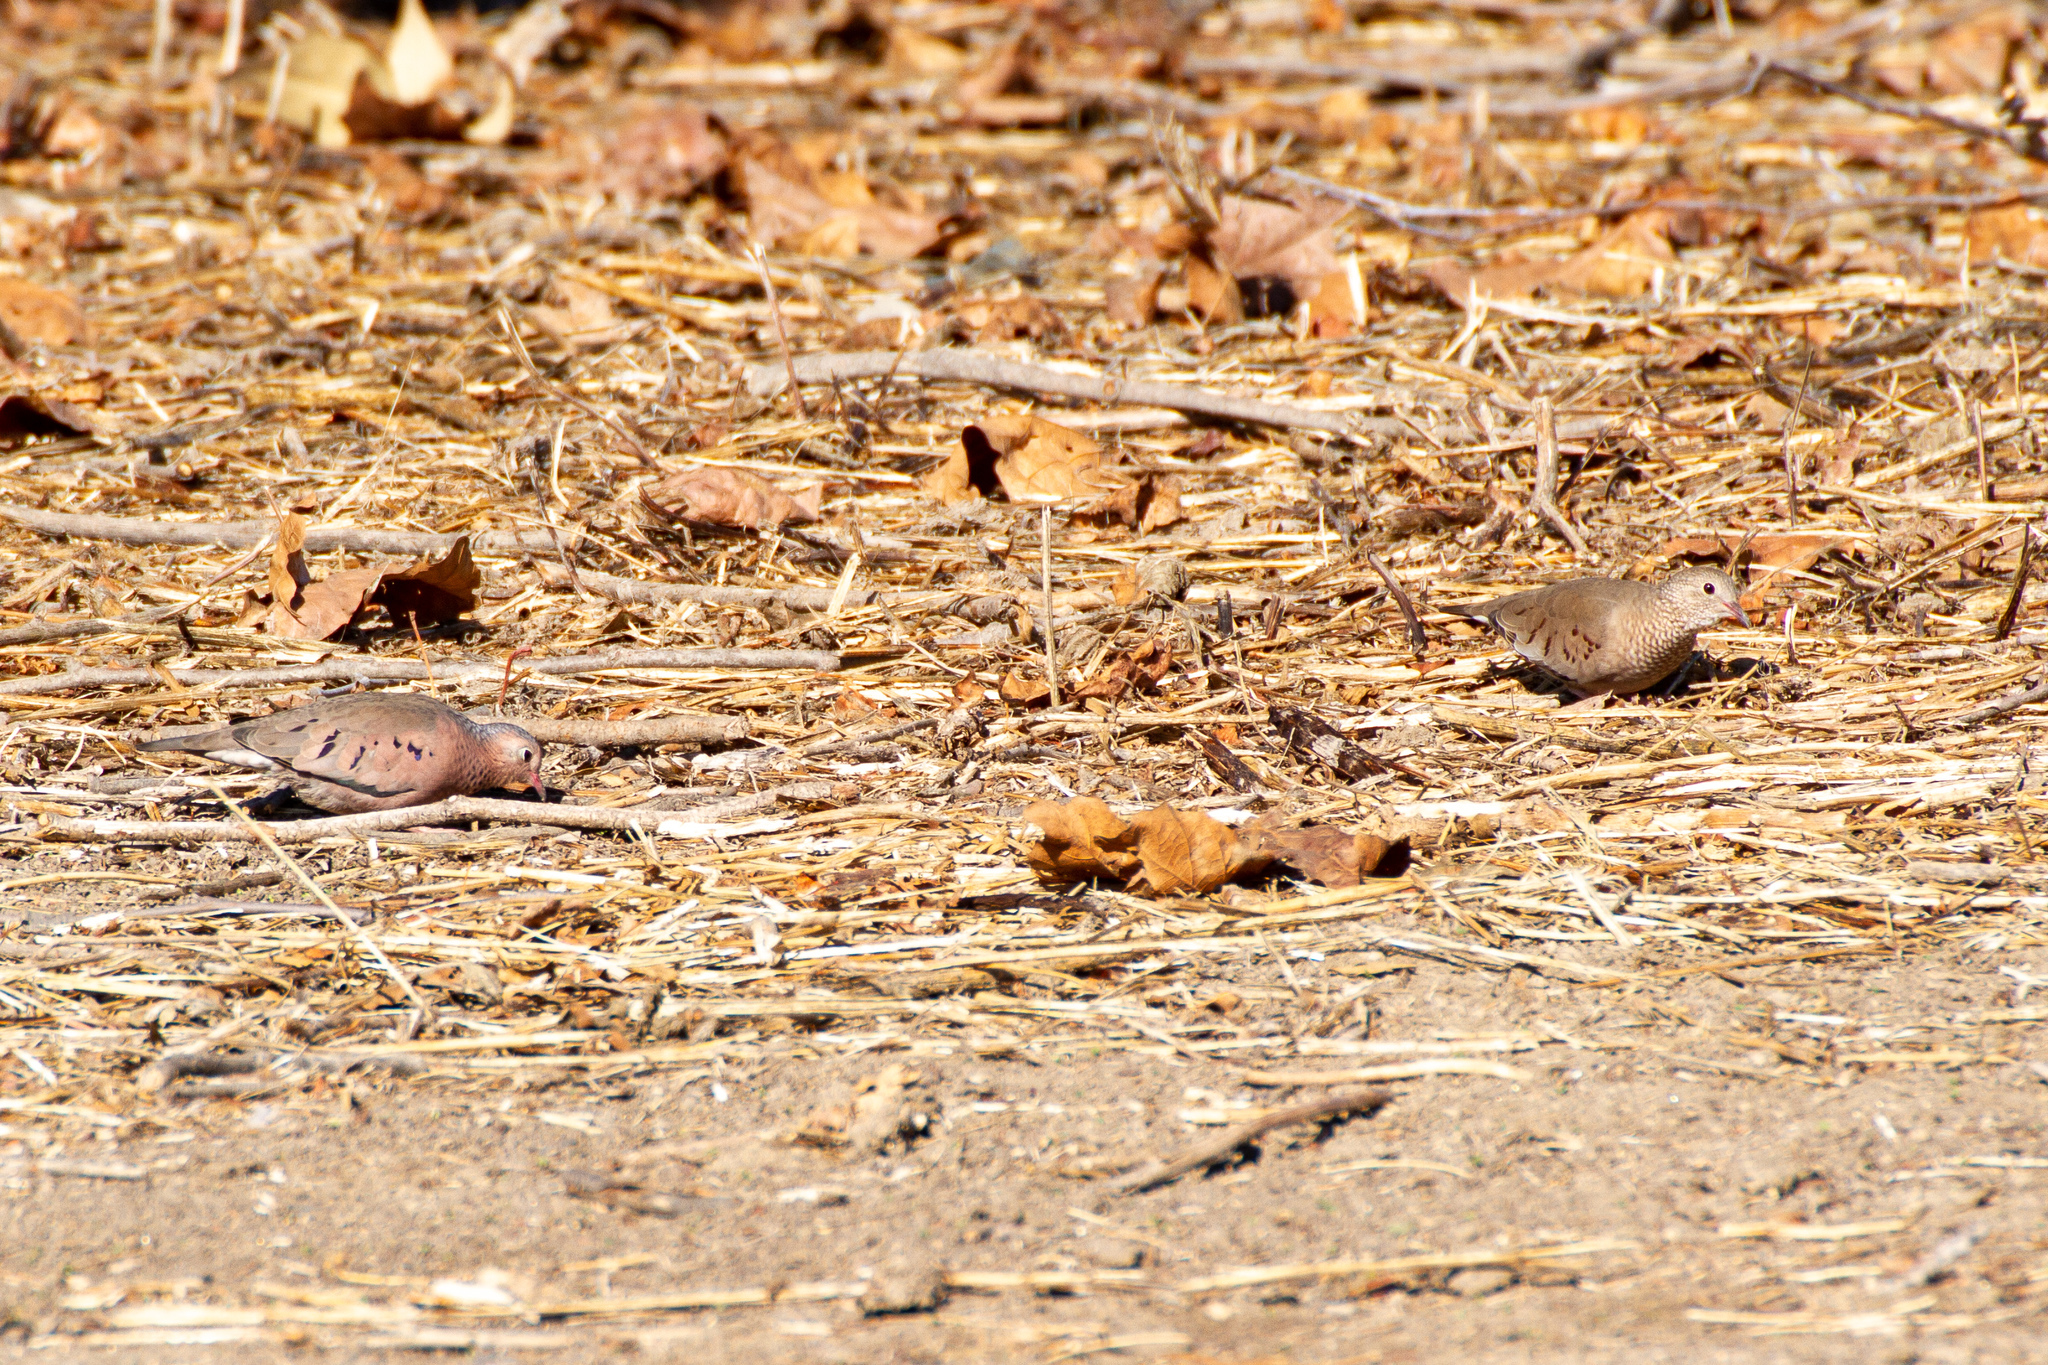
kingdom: Animalia
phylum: Chordata
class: Aves
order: Columbiformes
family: Columbidae
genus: Columbina
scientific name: Columbina passerina
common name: Common ground-dove
